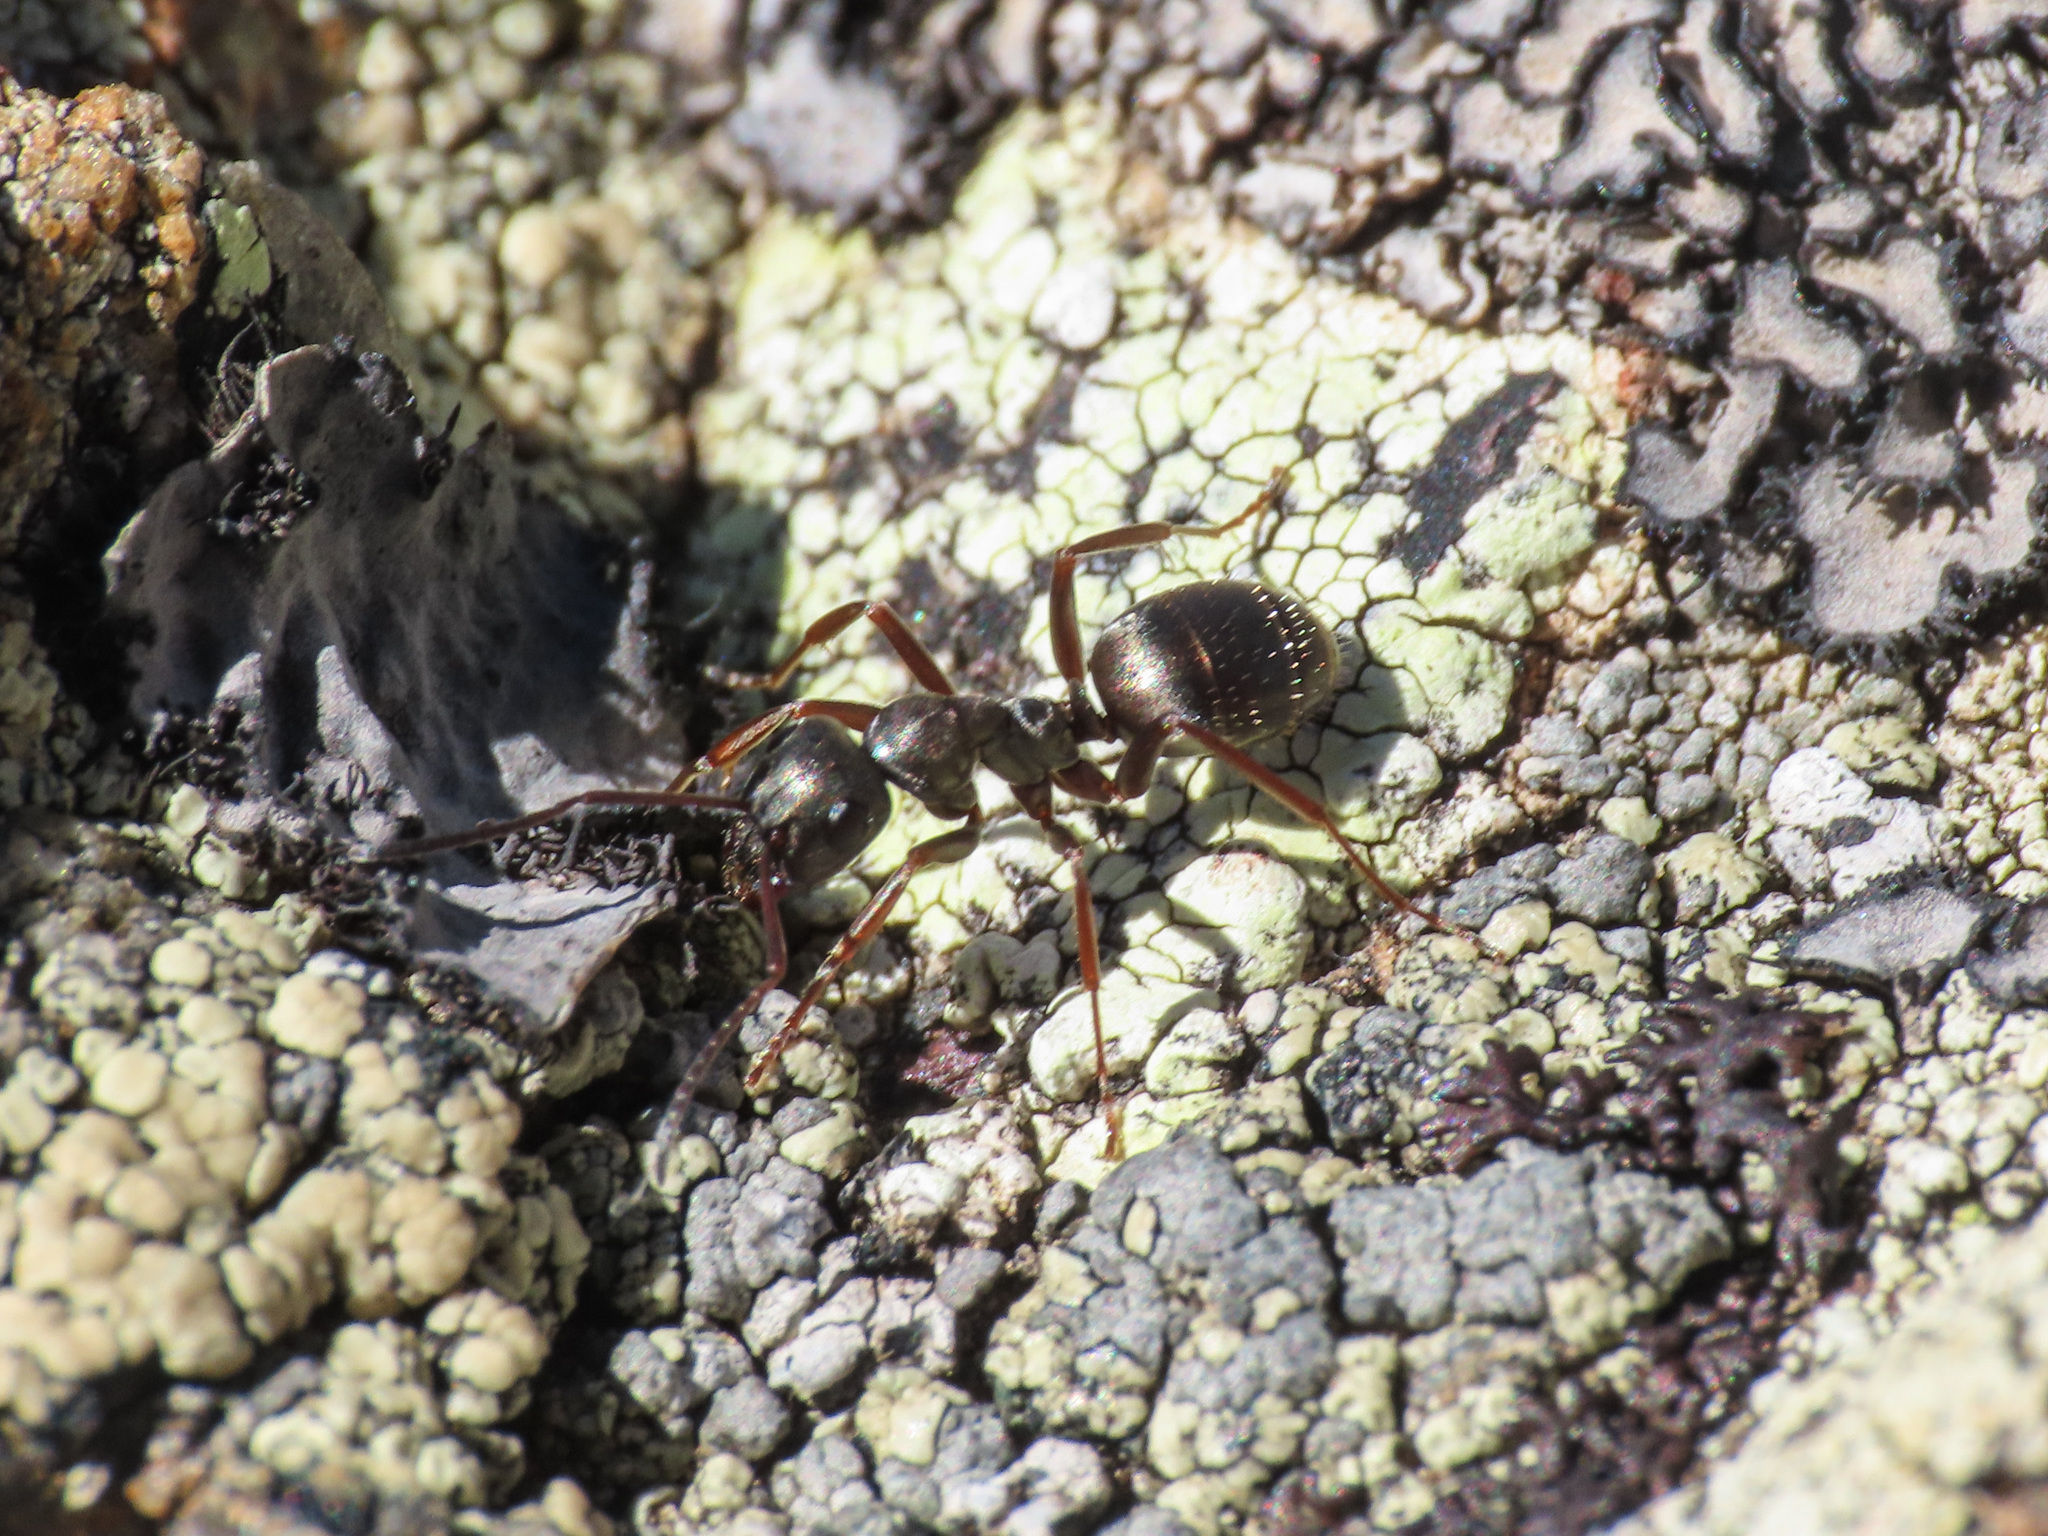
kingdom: Animalia
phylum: Arthropoda
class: Insecta
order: Hymenoptera
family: Formicidae
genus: Formica
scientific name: Formica lemani
